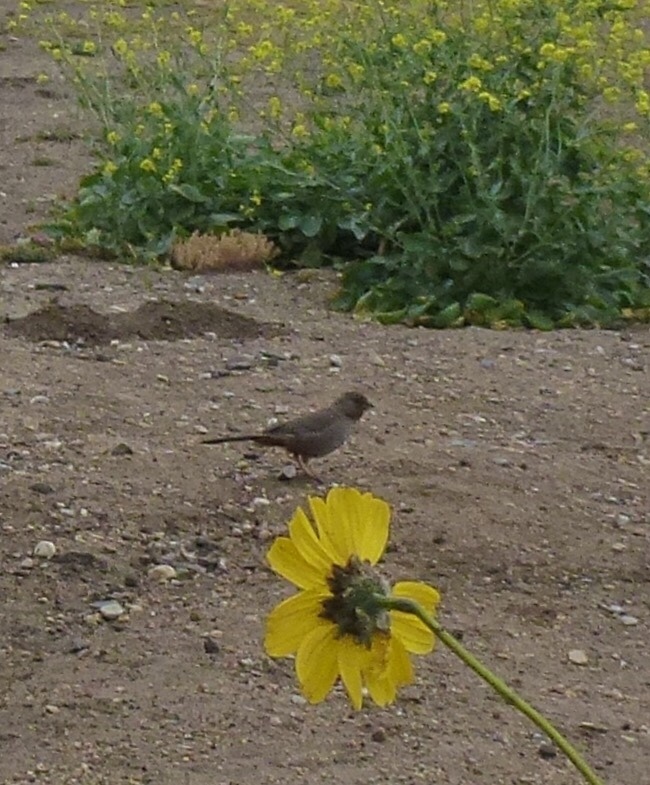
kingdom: Animalia
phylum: Chordata
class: Aves
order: Passeriformes
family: Passerellidae
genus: Melozone
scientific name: Melozone crissalis
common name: California towhee
